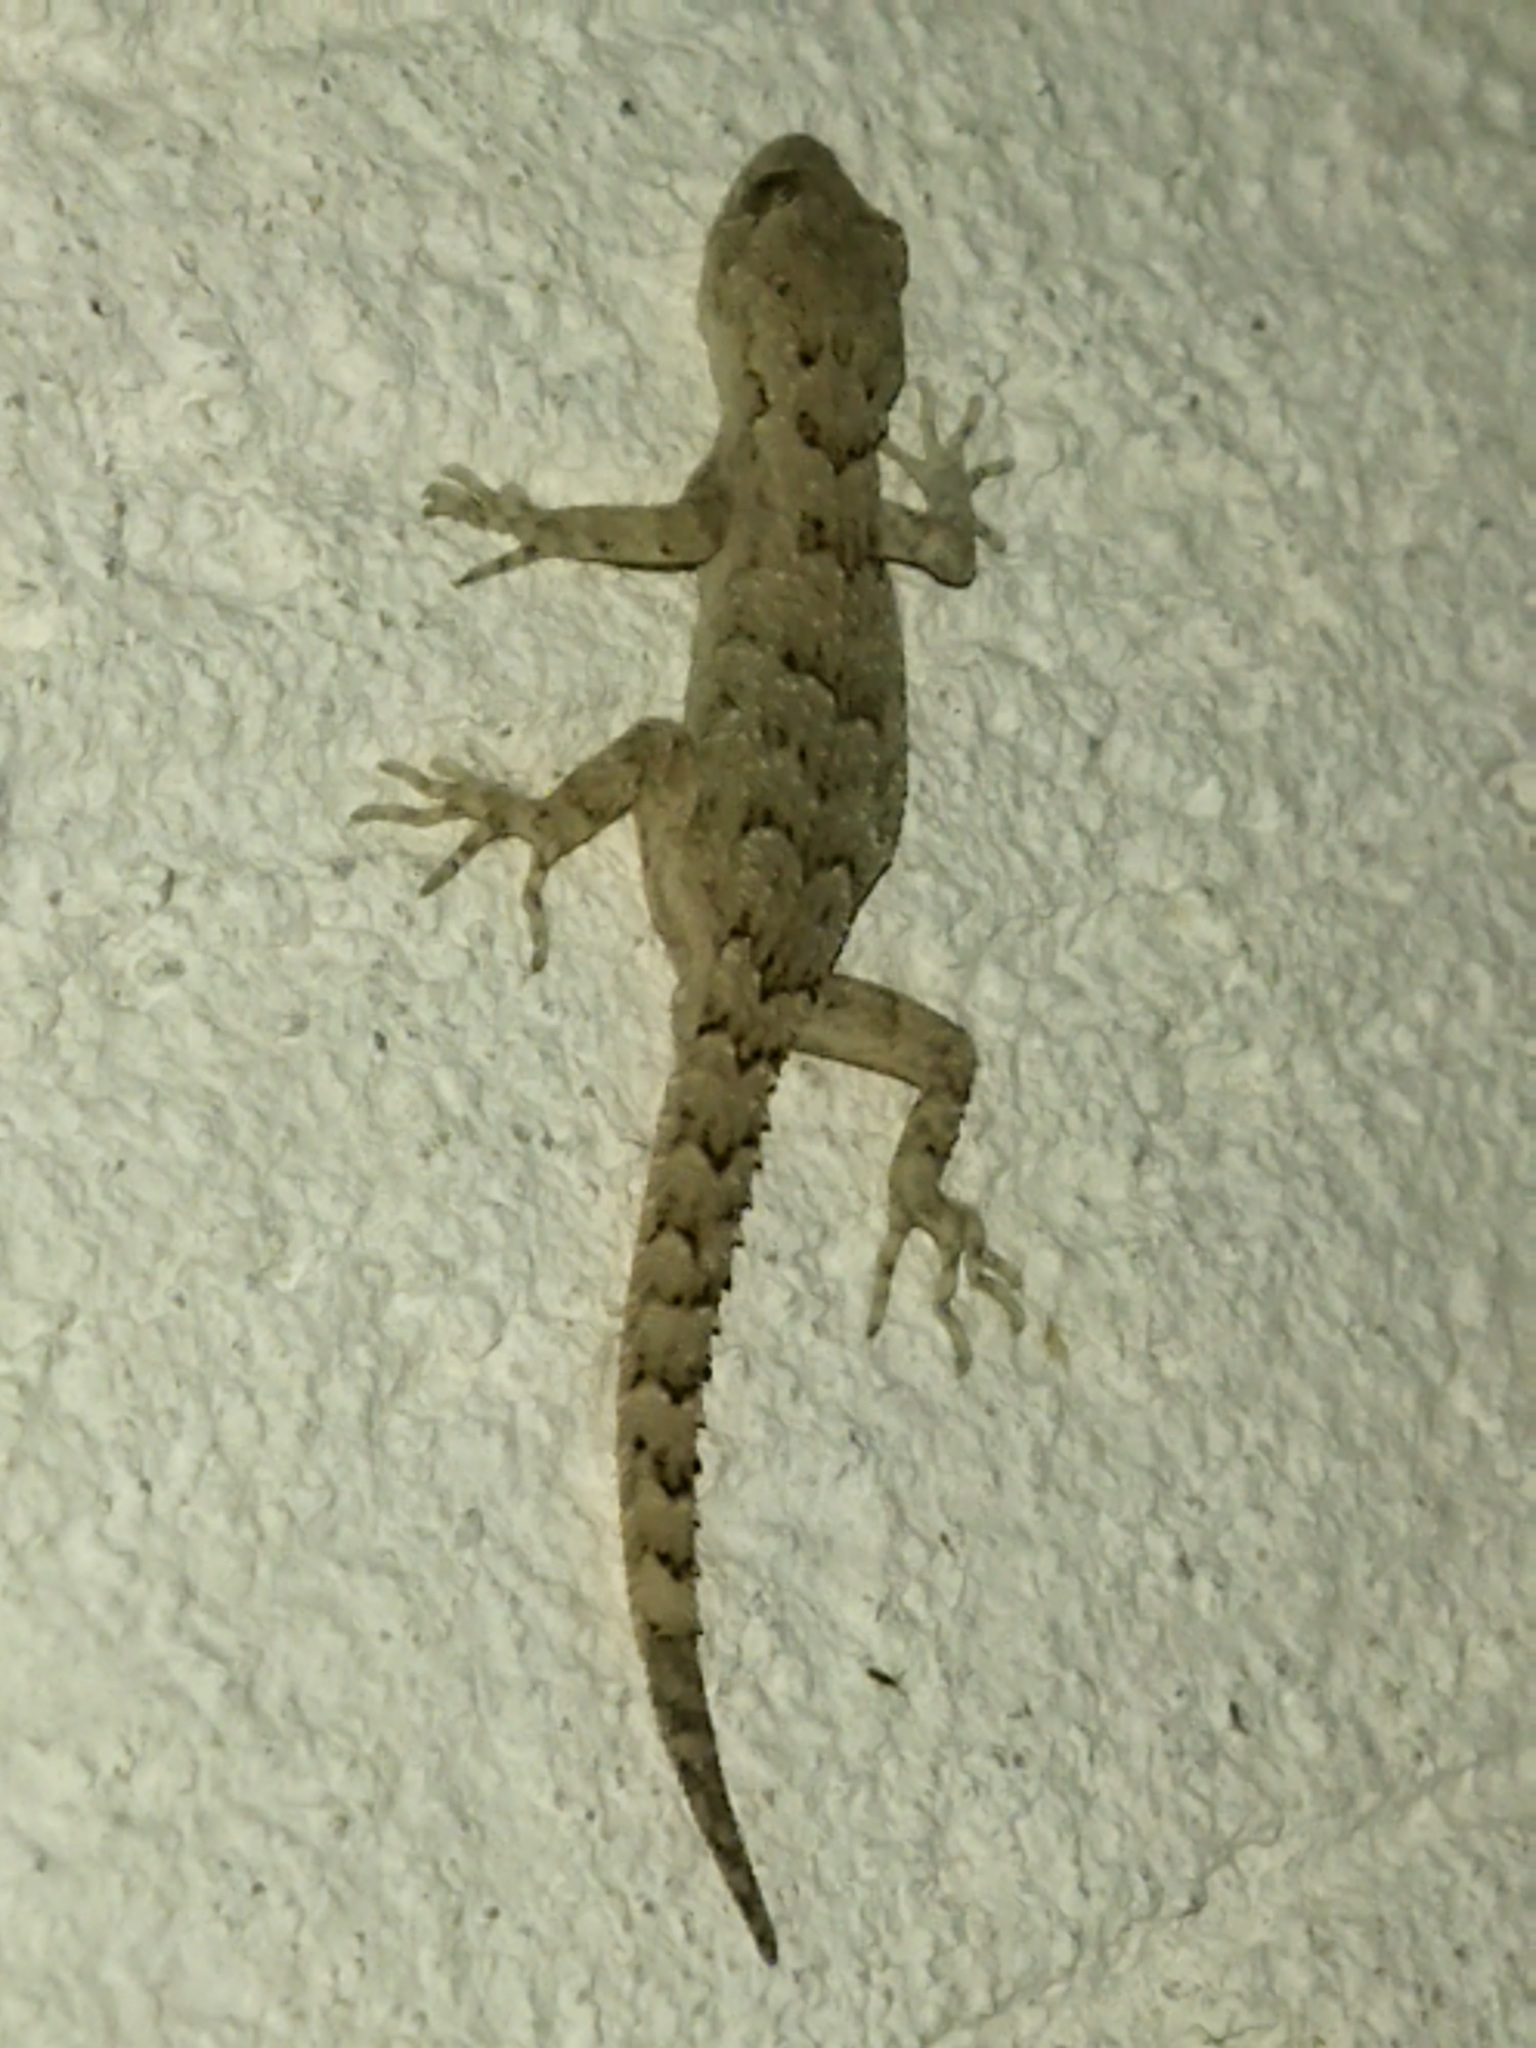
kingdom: Animalia
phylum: Chordata
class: Squamata
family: Gekkonidae
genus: Mediodactylus
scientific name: Mediodactylus kotschyi
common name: Kotschy's gecko
